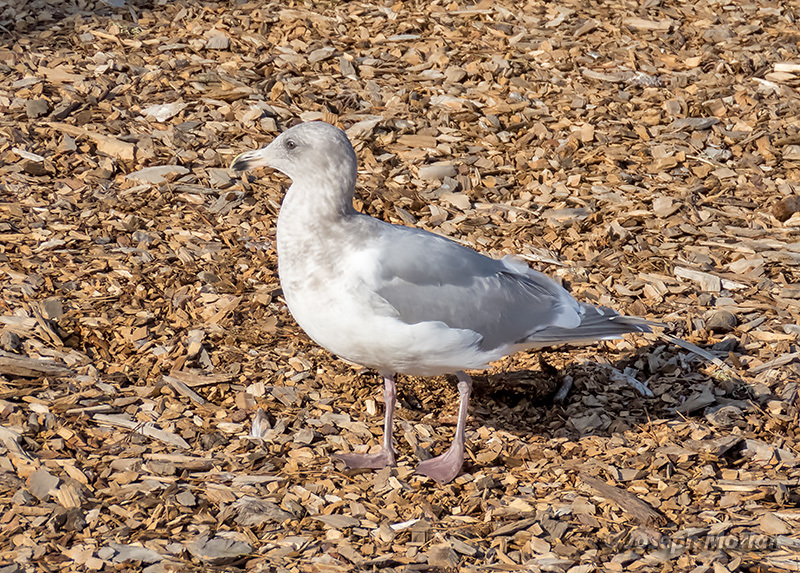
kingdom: Animalia
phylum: Chordata
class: Aves
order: Charadriiformes
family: Laridae
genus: Larus
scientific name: Larus glaucescens
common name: Glaucous-winged gull
